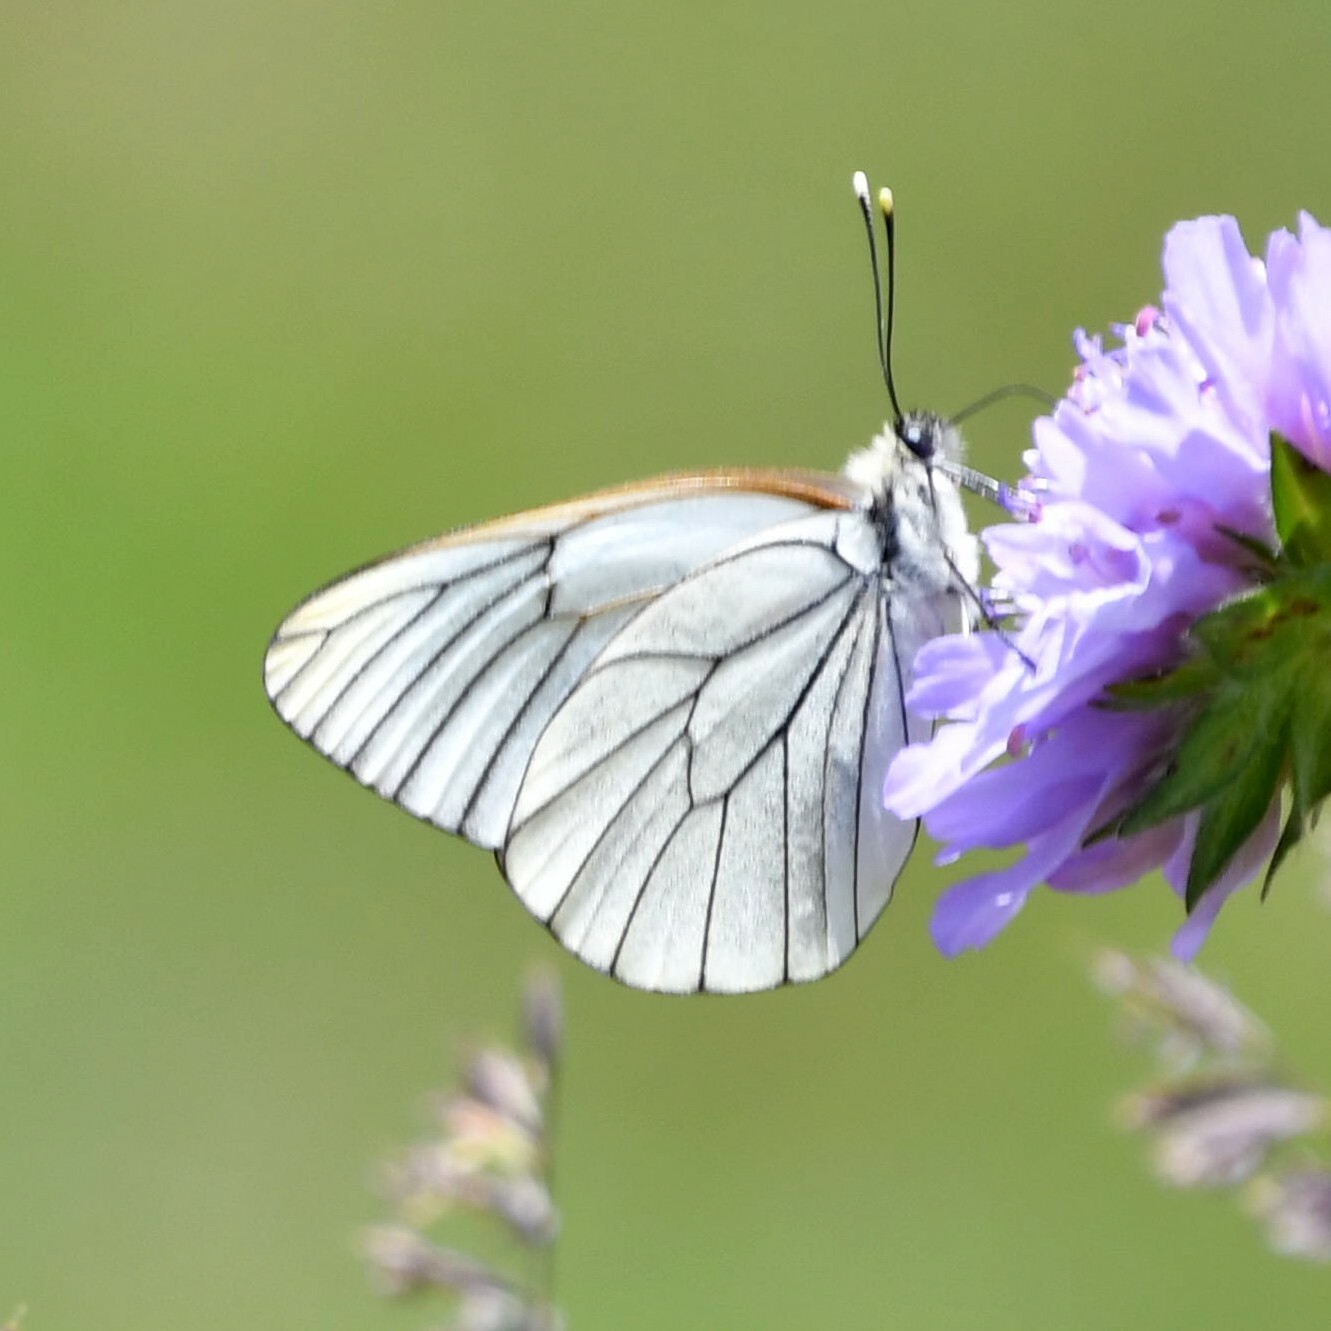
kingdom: Animalia
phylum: Arthropoda
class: Insecta
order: Lepidoptera
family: Pieridae
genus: Aporia
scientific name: Aporia crataegi
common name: Black-veined white
